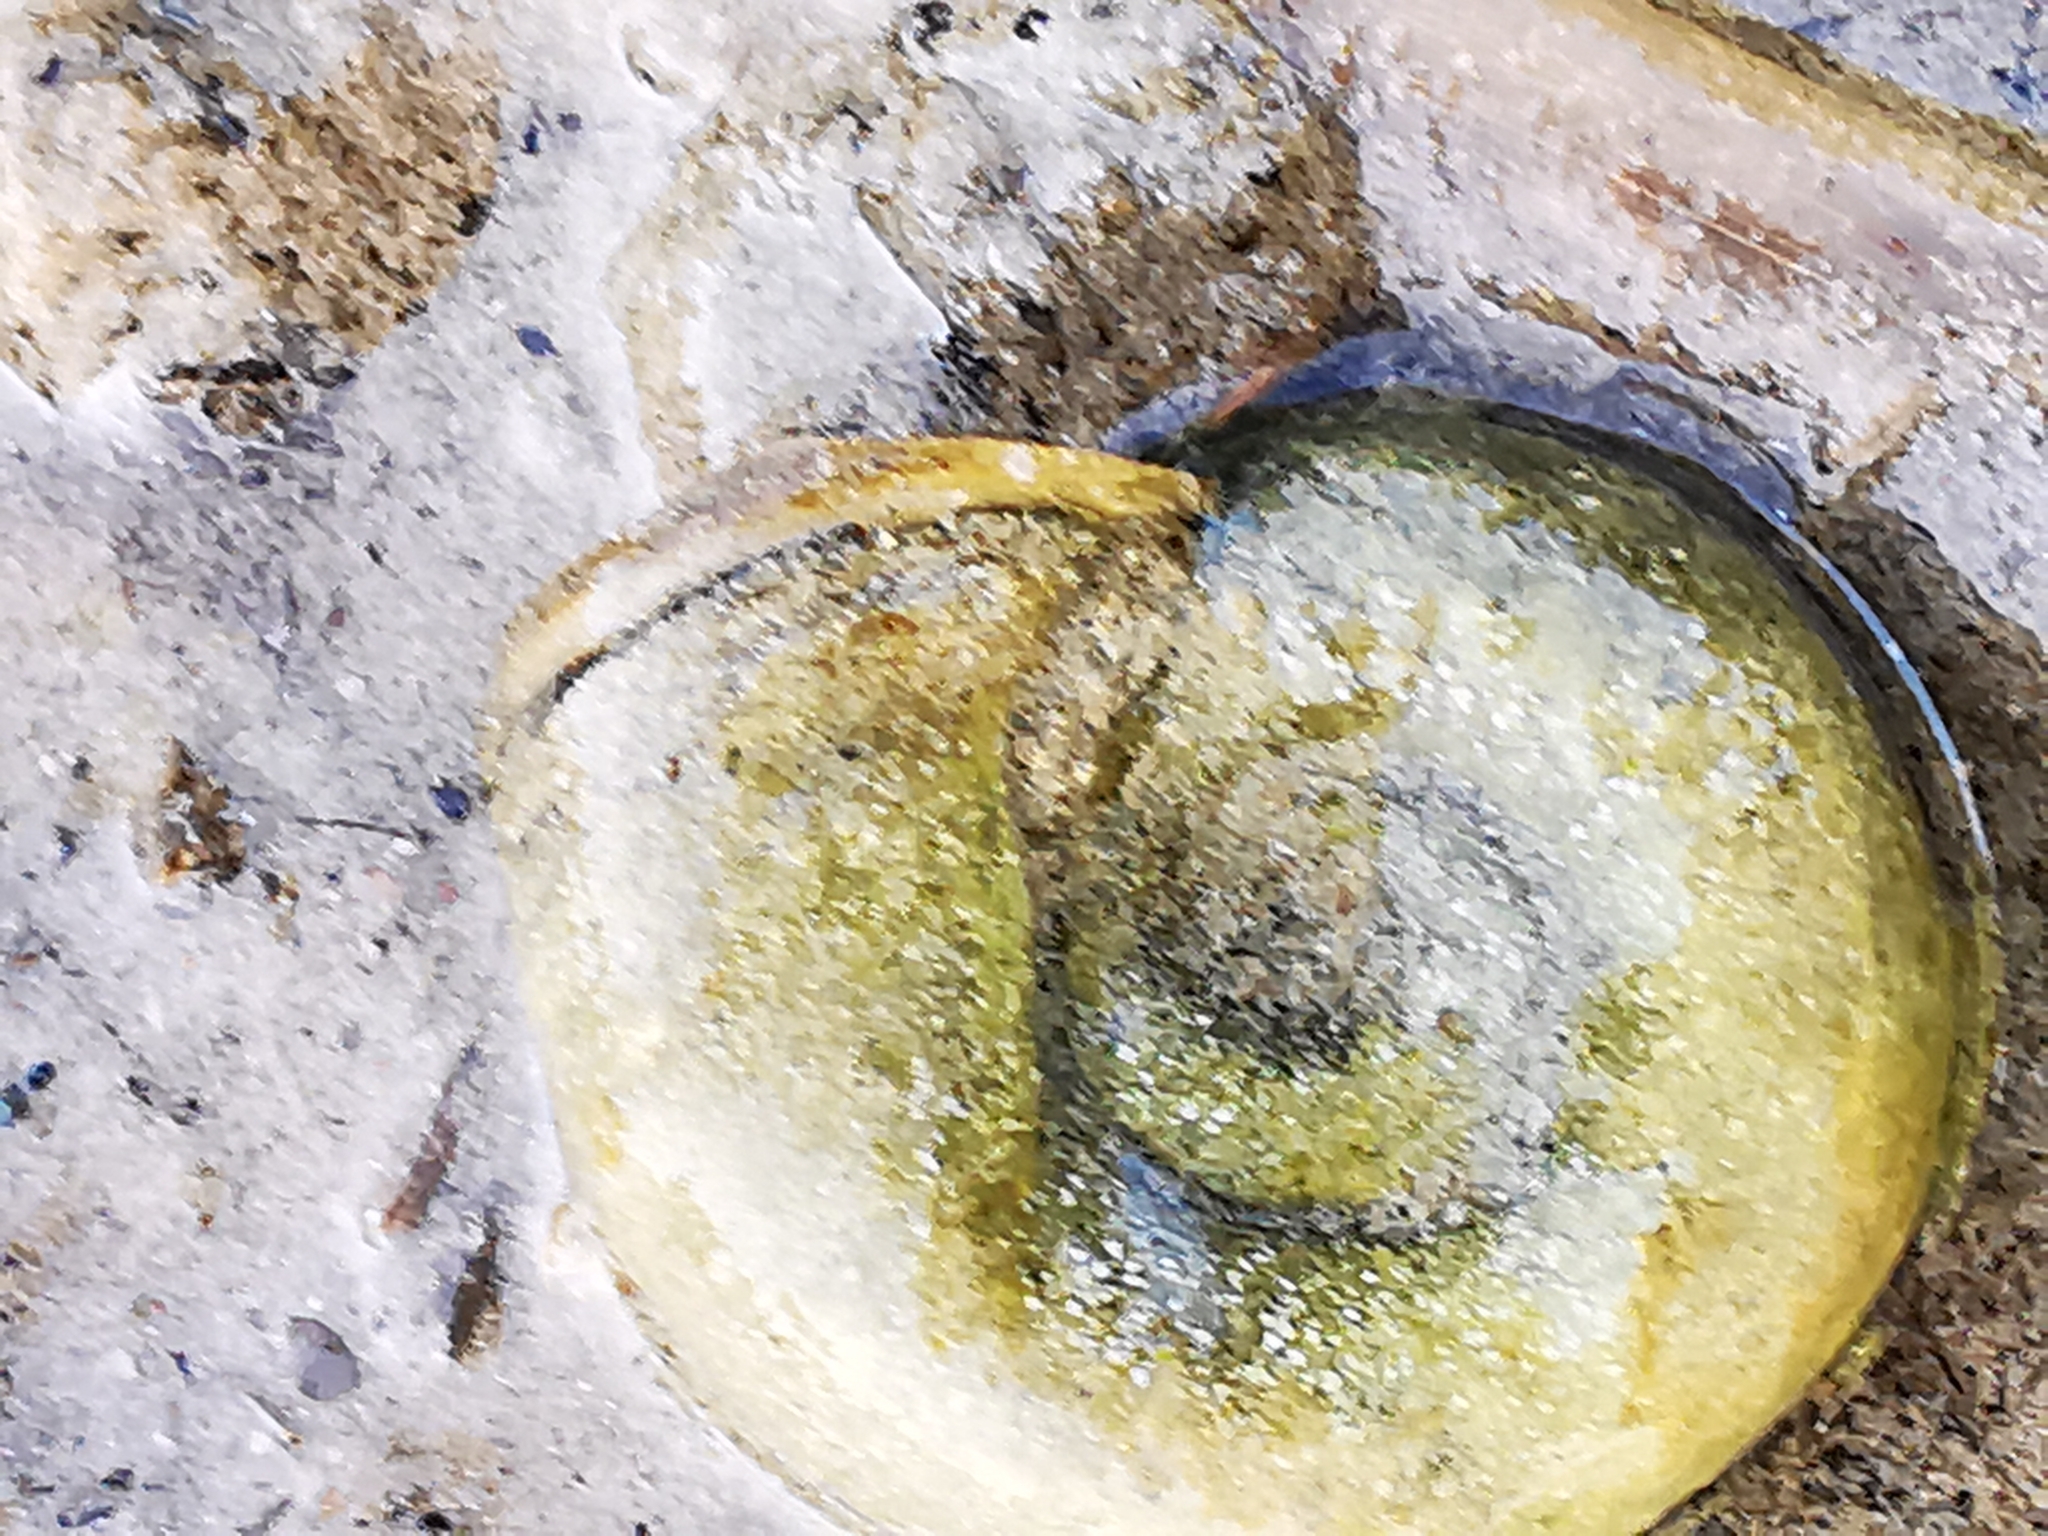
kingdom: Animalia
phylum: Mollusca
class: Gastropoda
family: Planorbidae
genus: Planorbarius
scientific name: Planorbarius corneus
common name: Great ramshorn
